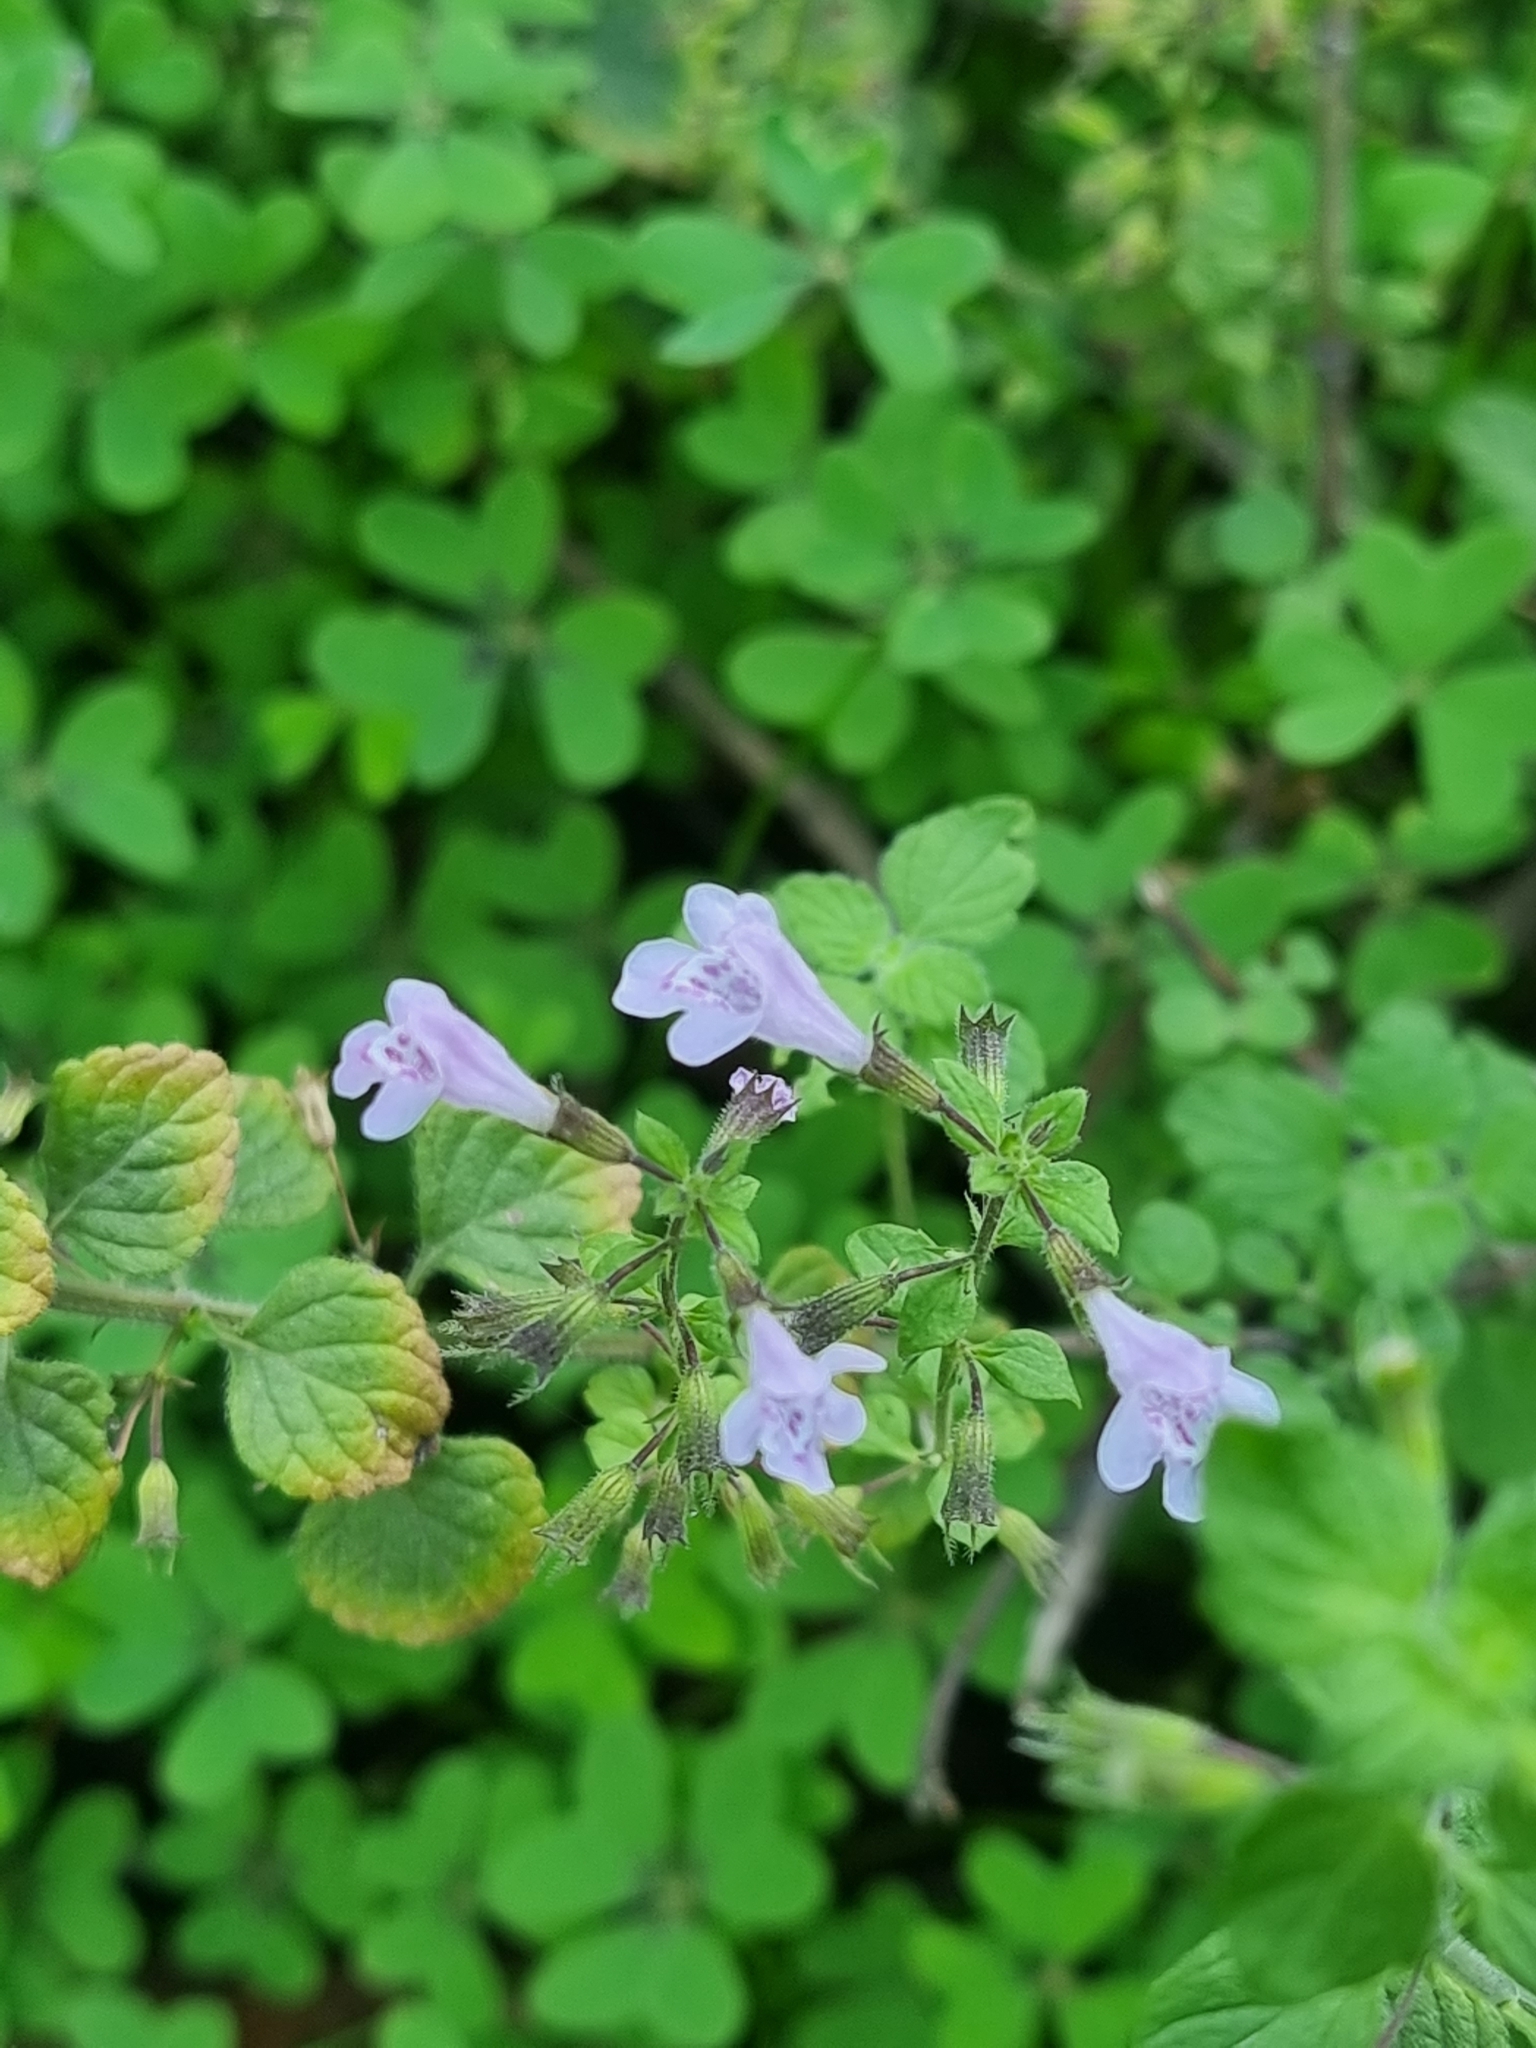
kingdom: Plantae
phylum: Tracheophyta
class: Magnoliopsida
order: Lamiales
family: Lamiaceae
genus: Clinopodium
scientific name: Clinopodium menthifolium
